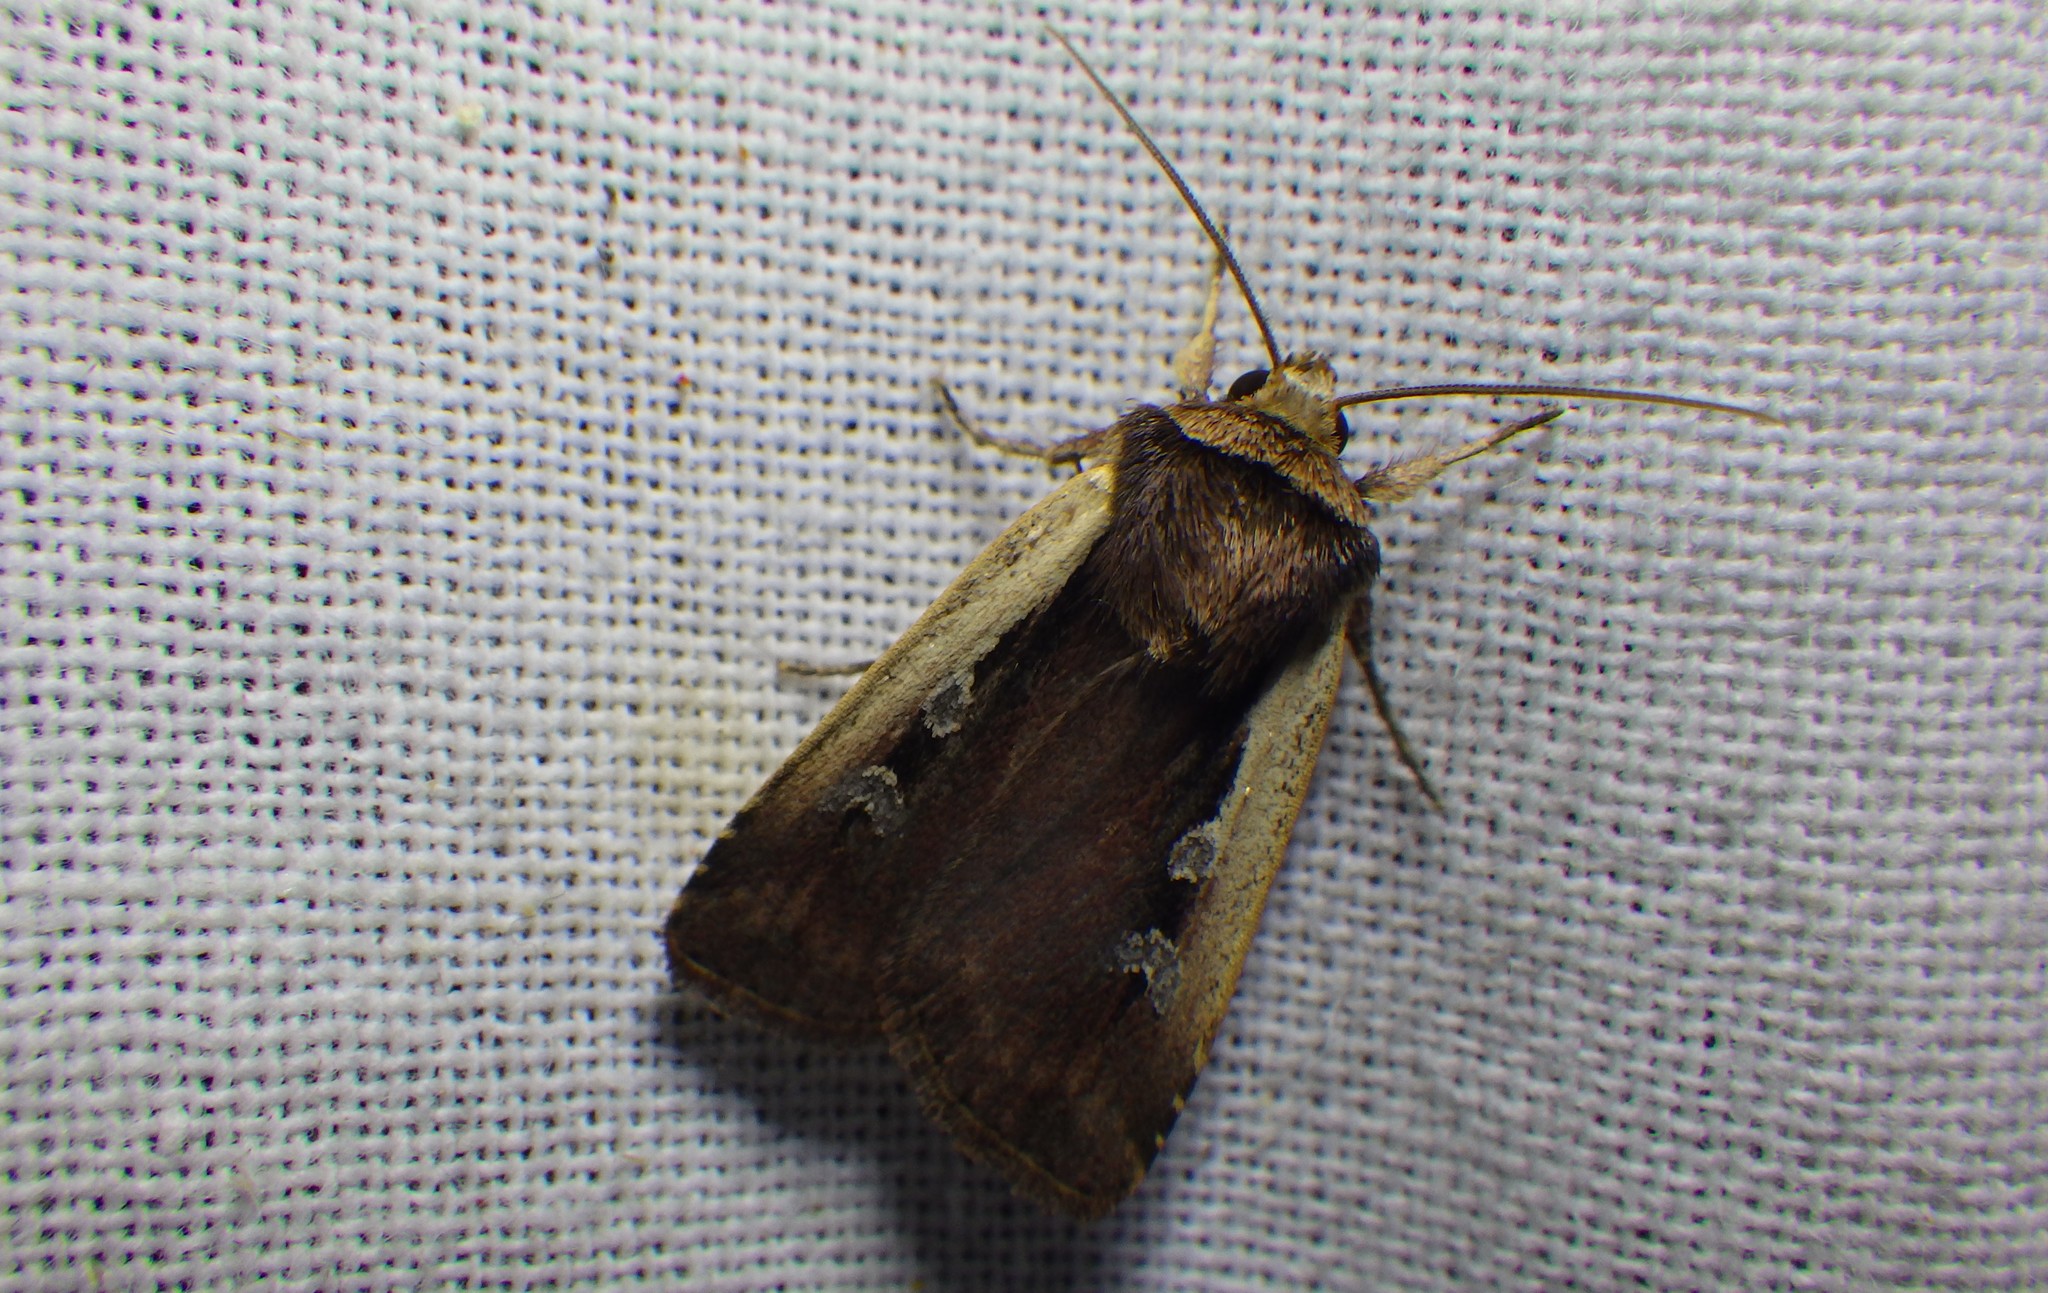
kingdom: Animalia
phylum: Arthropoda
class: Insecta
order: Lepidoptera
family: Noctuidae
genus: Ochropleura
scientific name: Ochropleura plecta
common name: Flame shoulder
